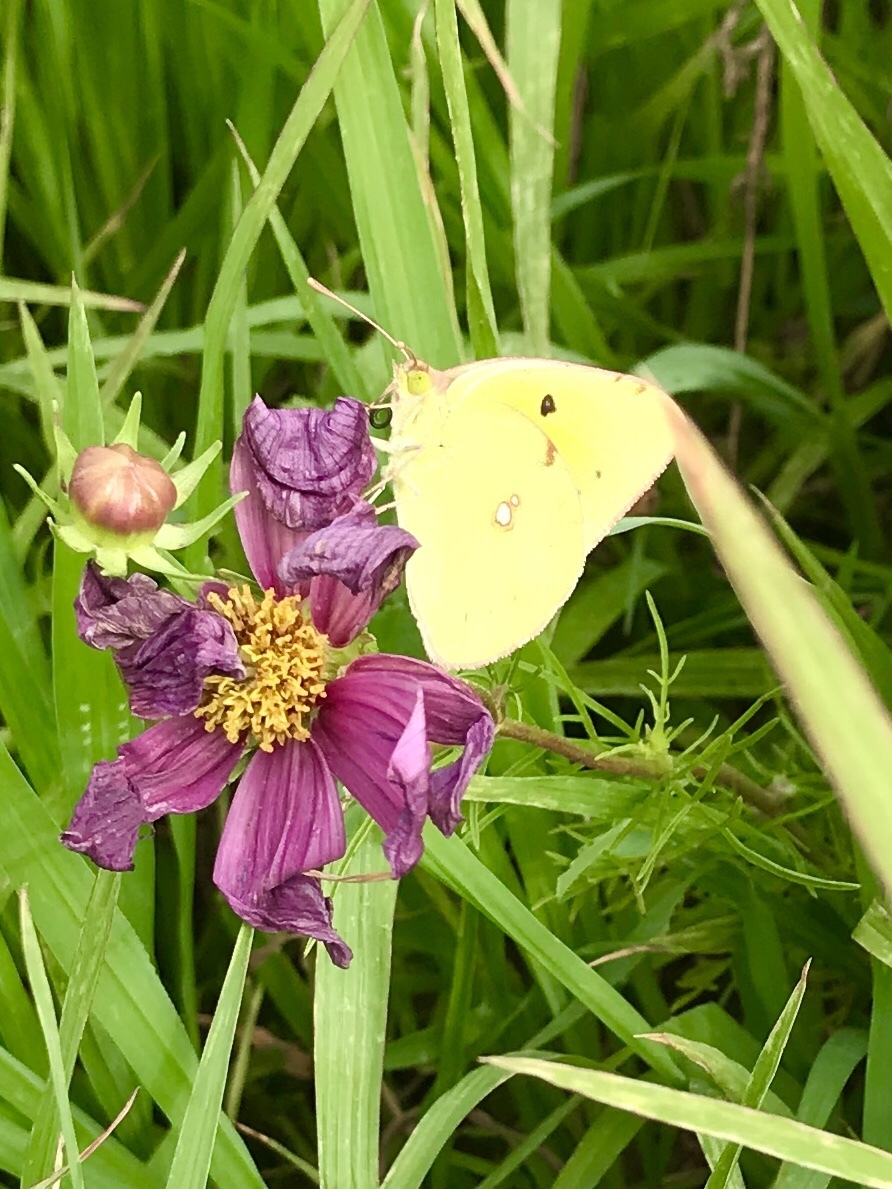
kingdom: Animalia
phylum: Arthropoda
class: Insecta
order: Lepidoptera
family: Pieridae
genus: Colias
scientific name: Colias croceus
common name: Clouded yellow
